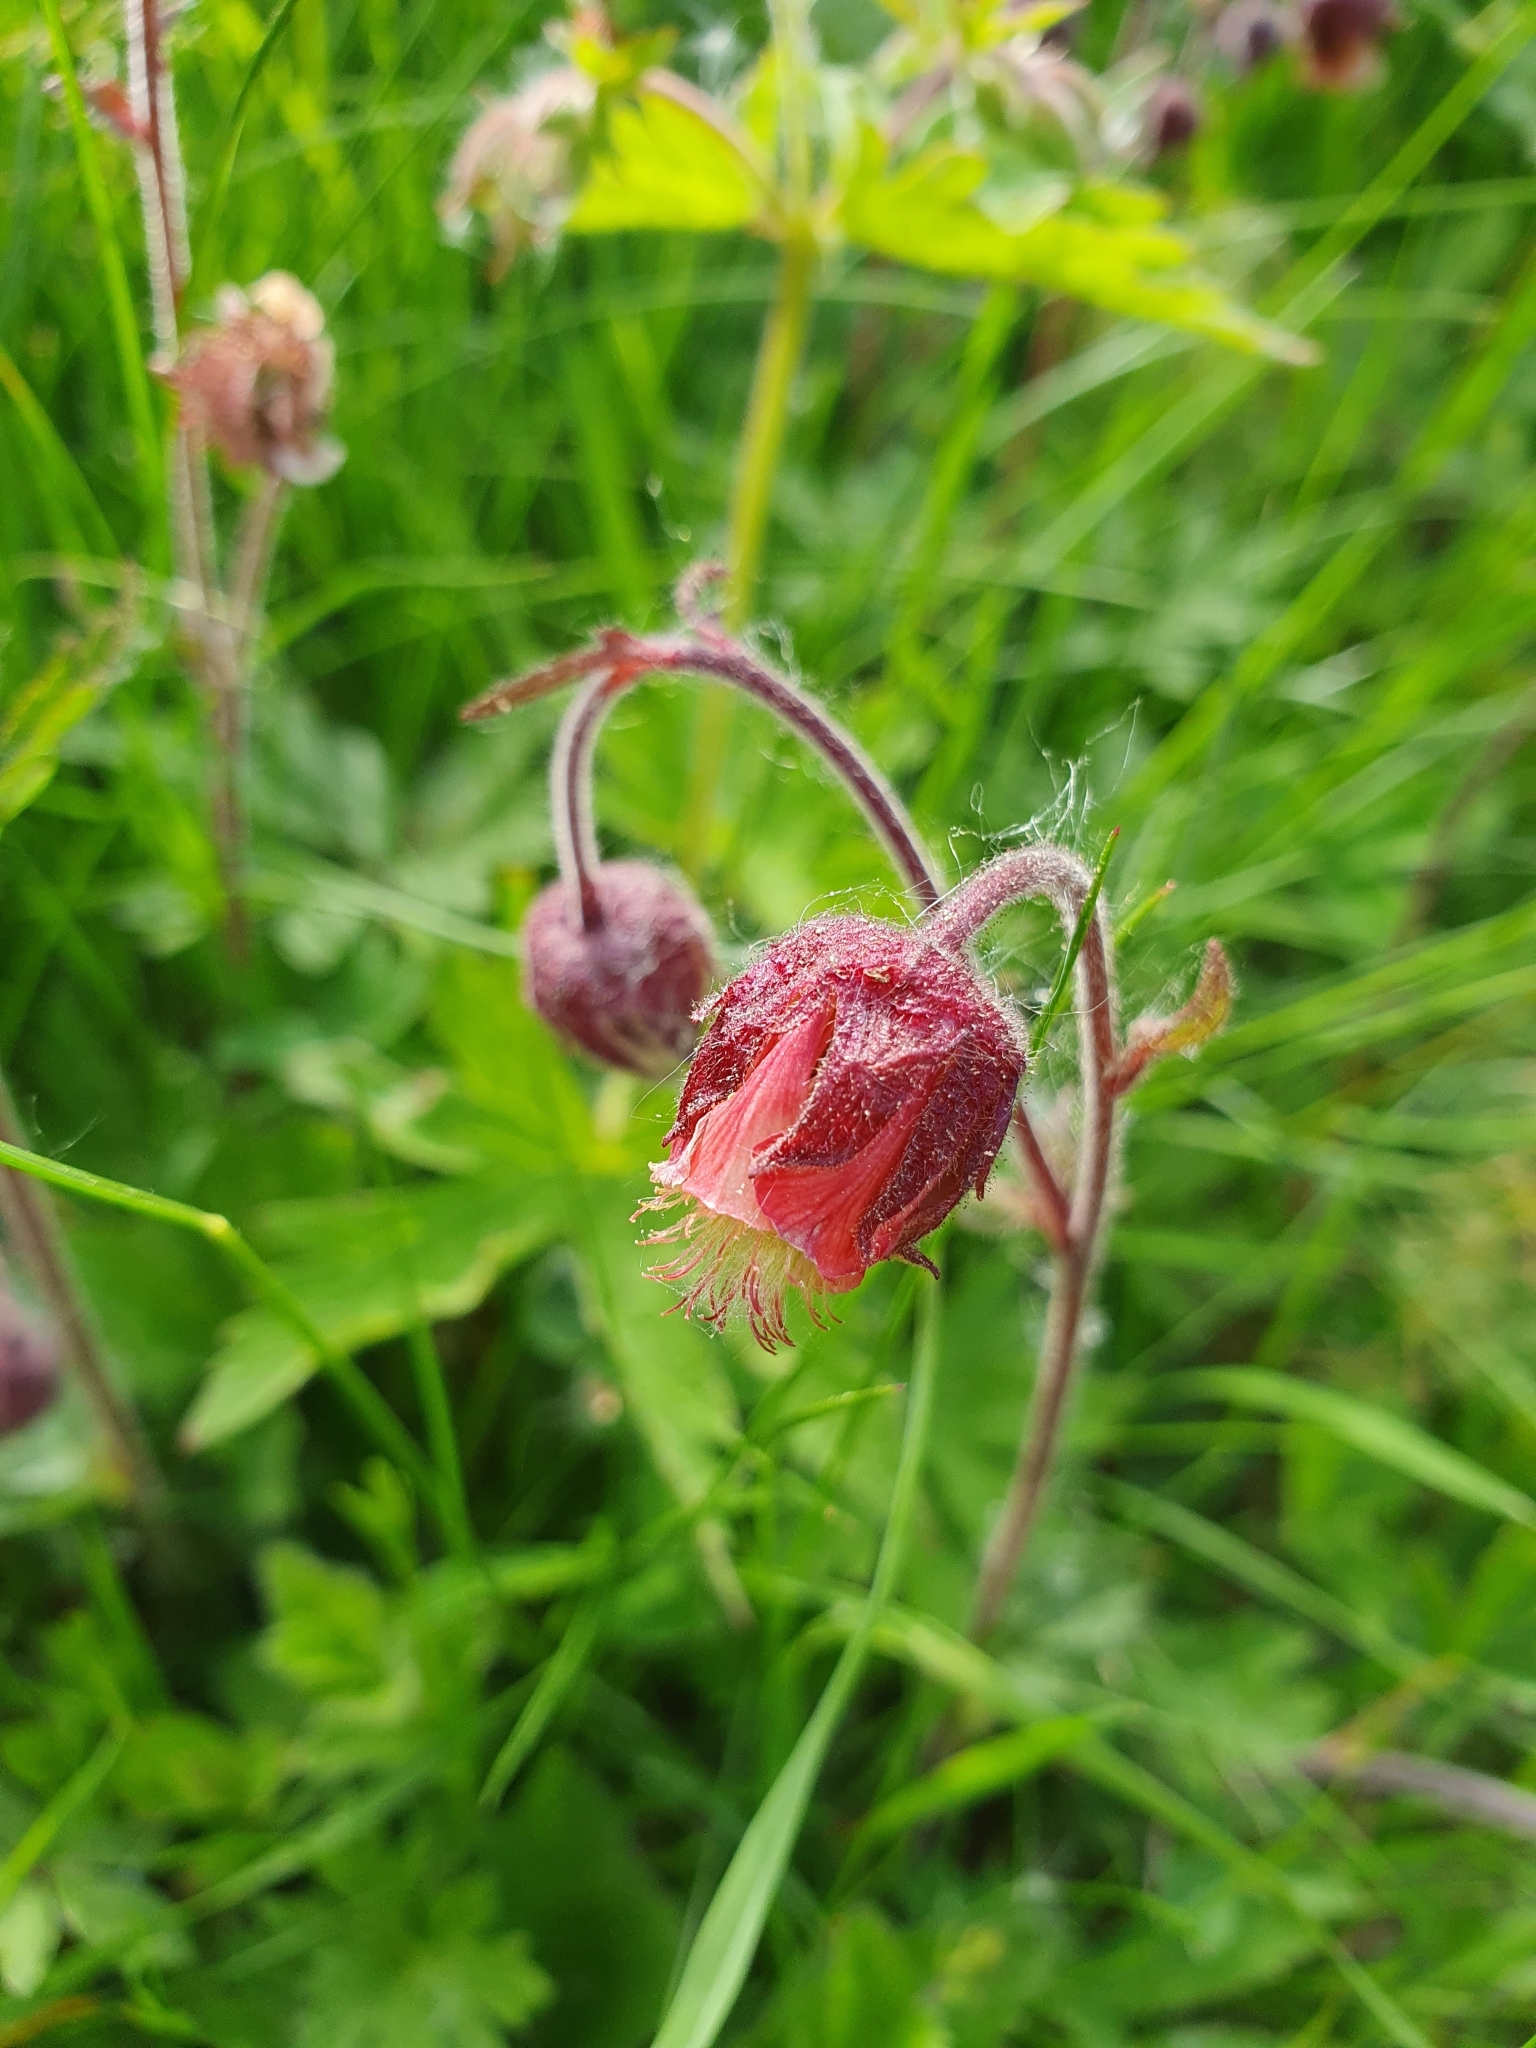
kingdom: Plantae
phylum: Tracheophyta
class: Magnoliopsida
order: Rosales
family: Rosaceae
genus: Geum
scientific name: Geum rivale
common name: Water avens
